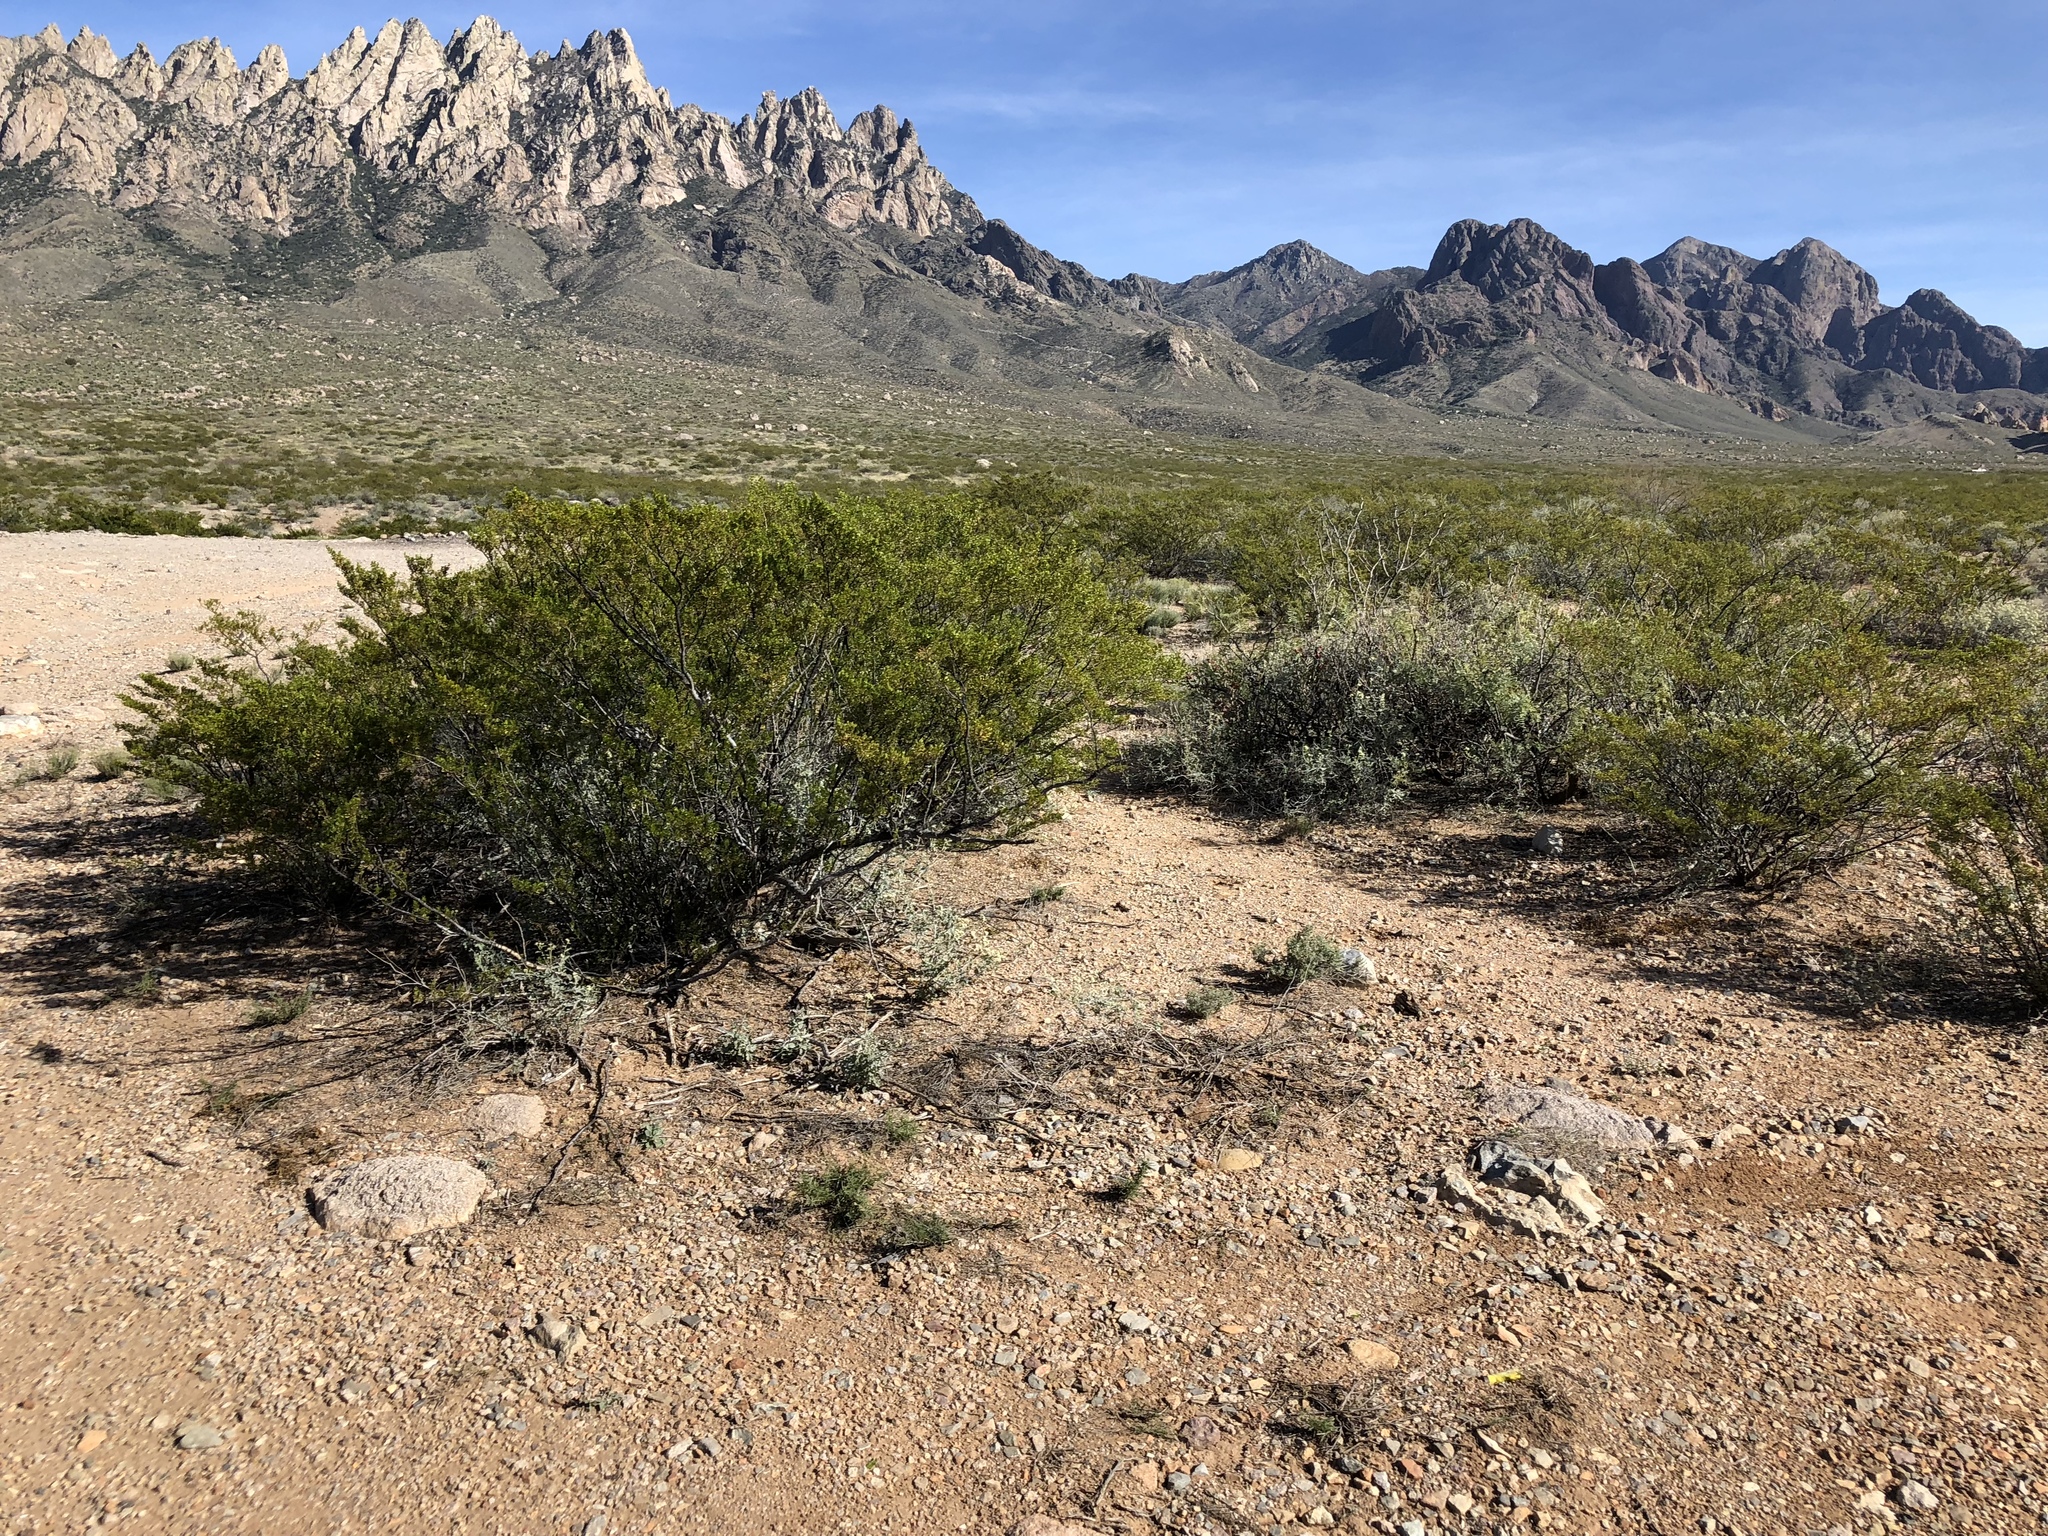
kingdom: Plantae
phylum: Tracheophyta
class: Magnoliopsida
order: Zygophyllales
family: Zygophyllaceae
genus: Larrea
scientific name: Larrea tridentata
